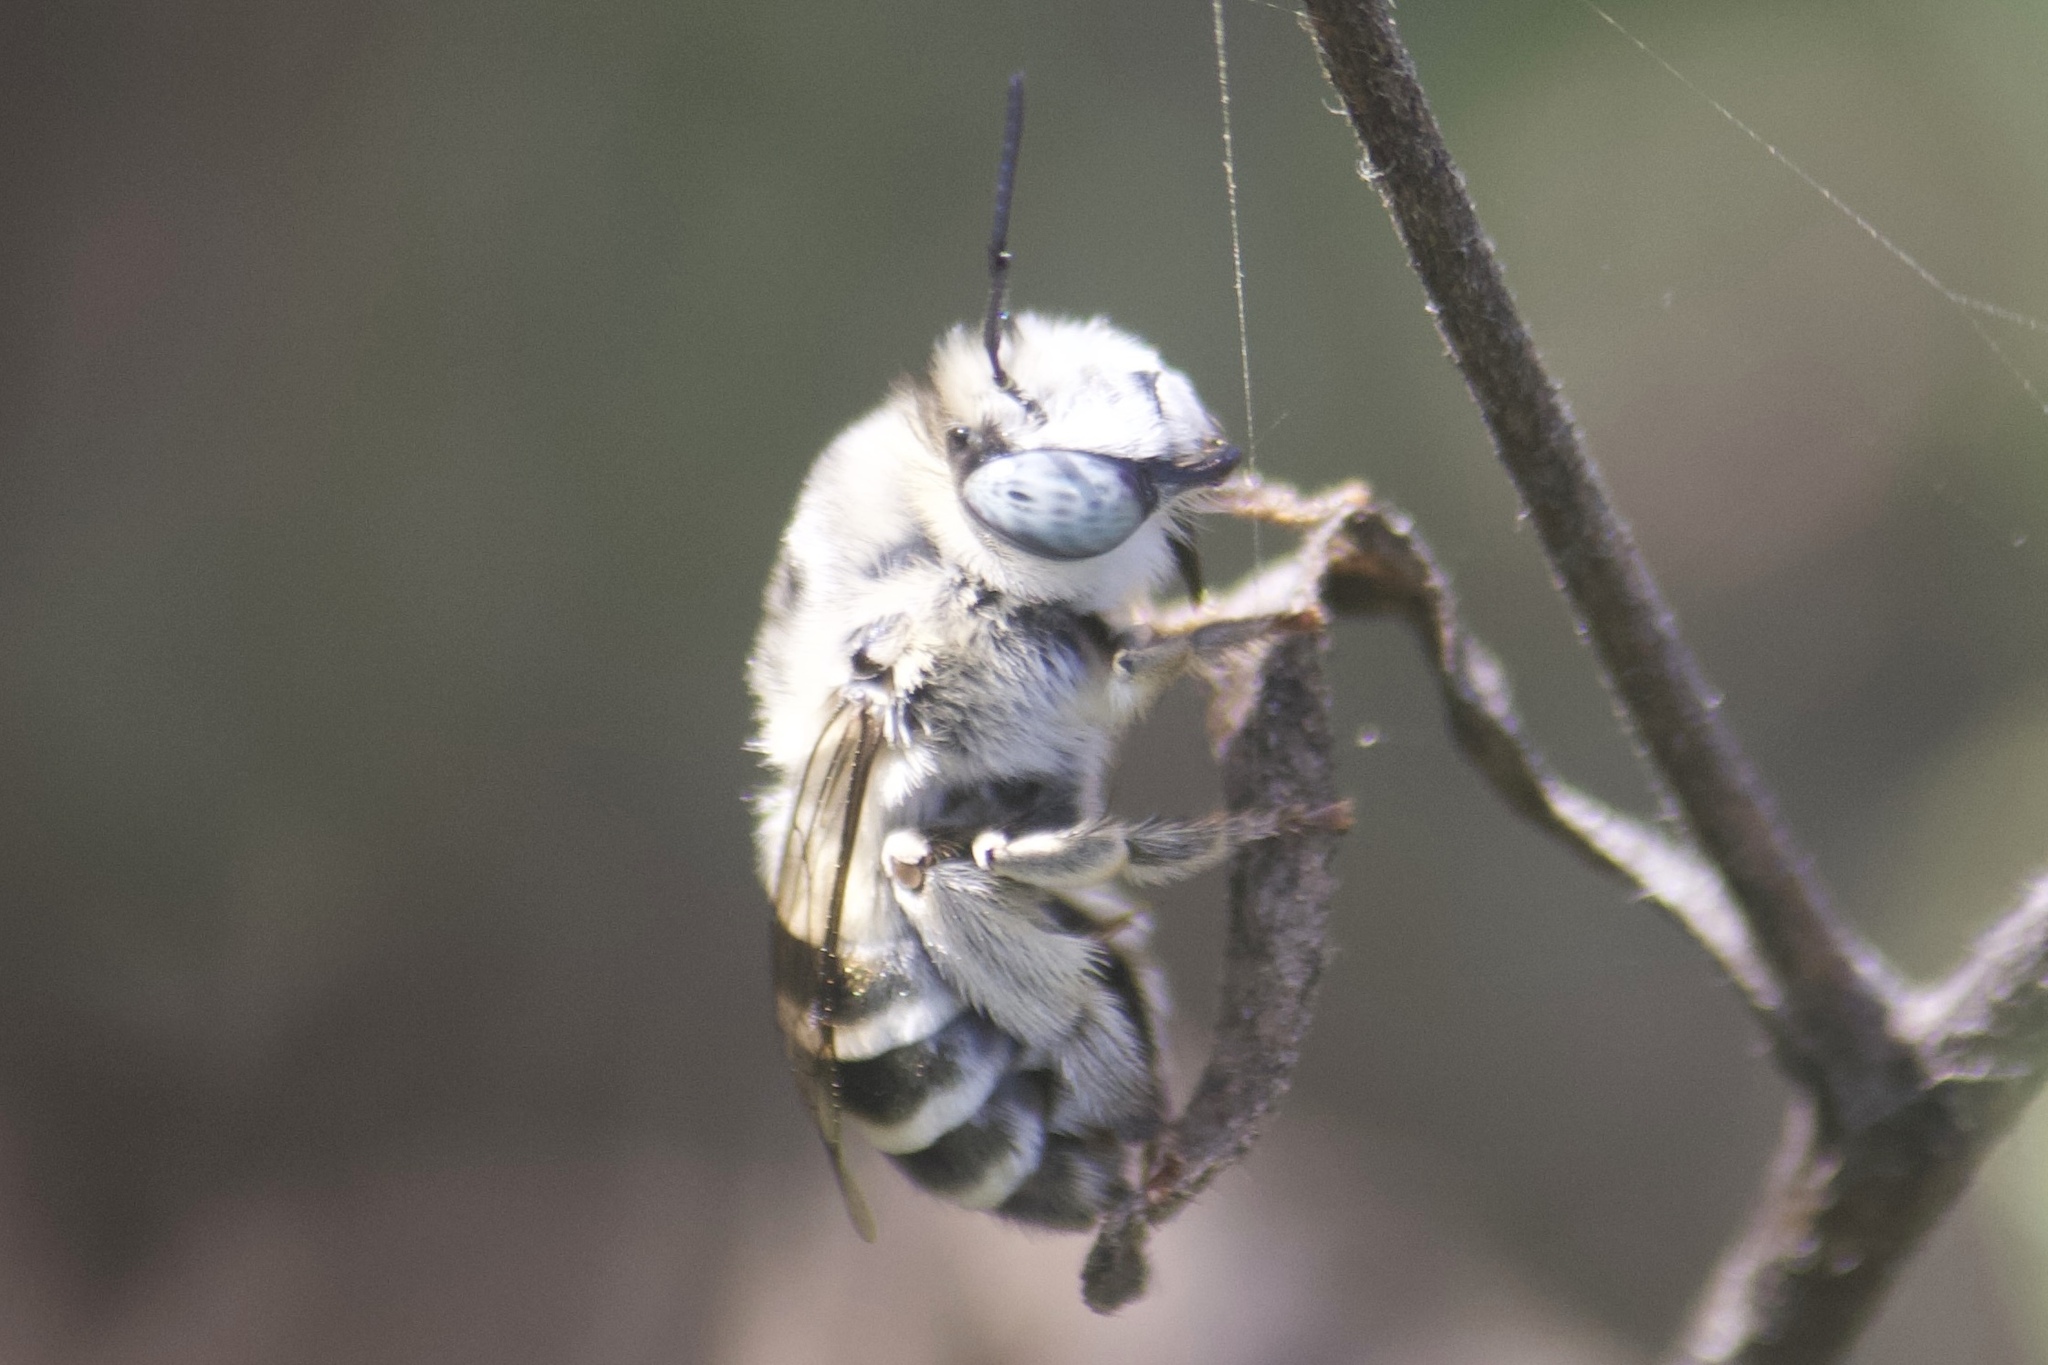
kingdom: Animalia
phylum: Arthropoda
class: Insecta
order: Hymenoptera
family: Apidae
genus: Anthophora
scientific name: Anthophora urbana
